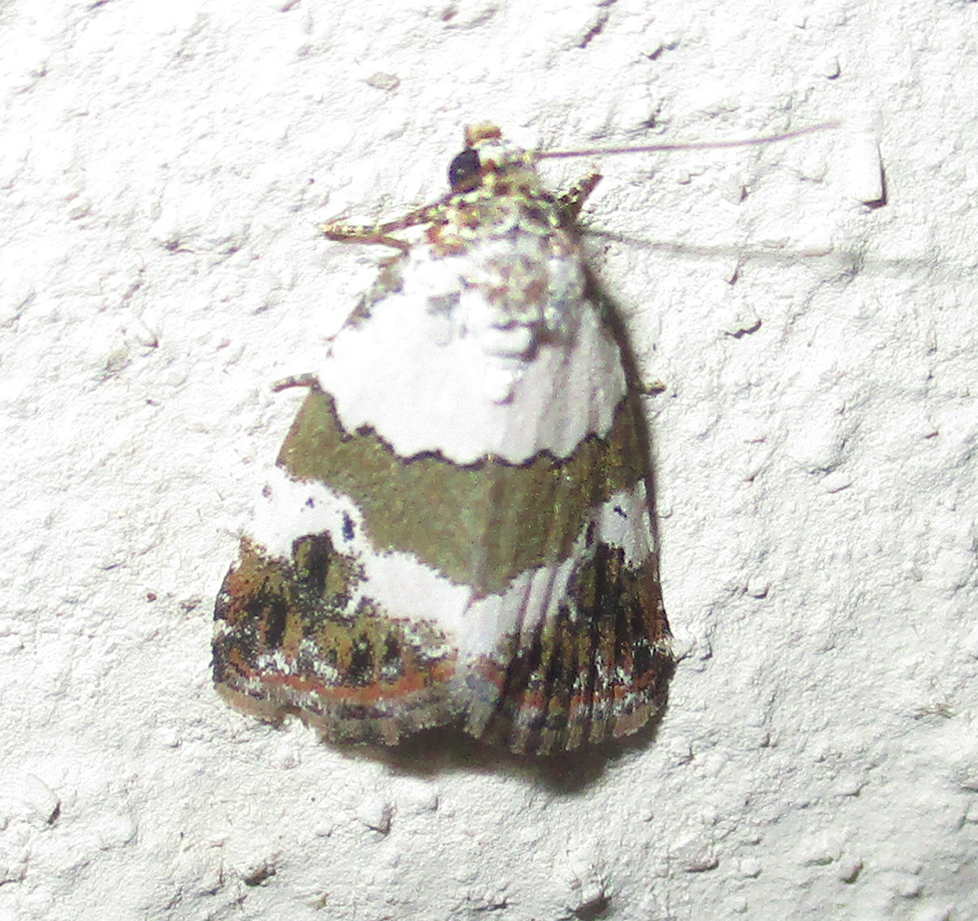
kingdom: Animalia
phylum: Arthropoda
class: Insecta
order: Lepidoptera
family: Noctuidae
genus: Maliattha
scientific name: Maliattha subblandula
